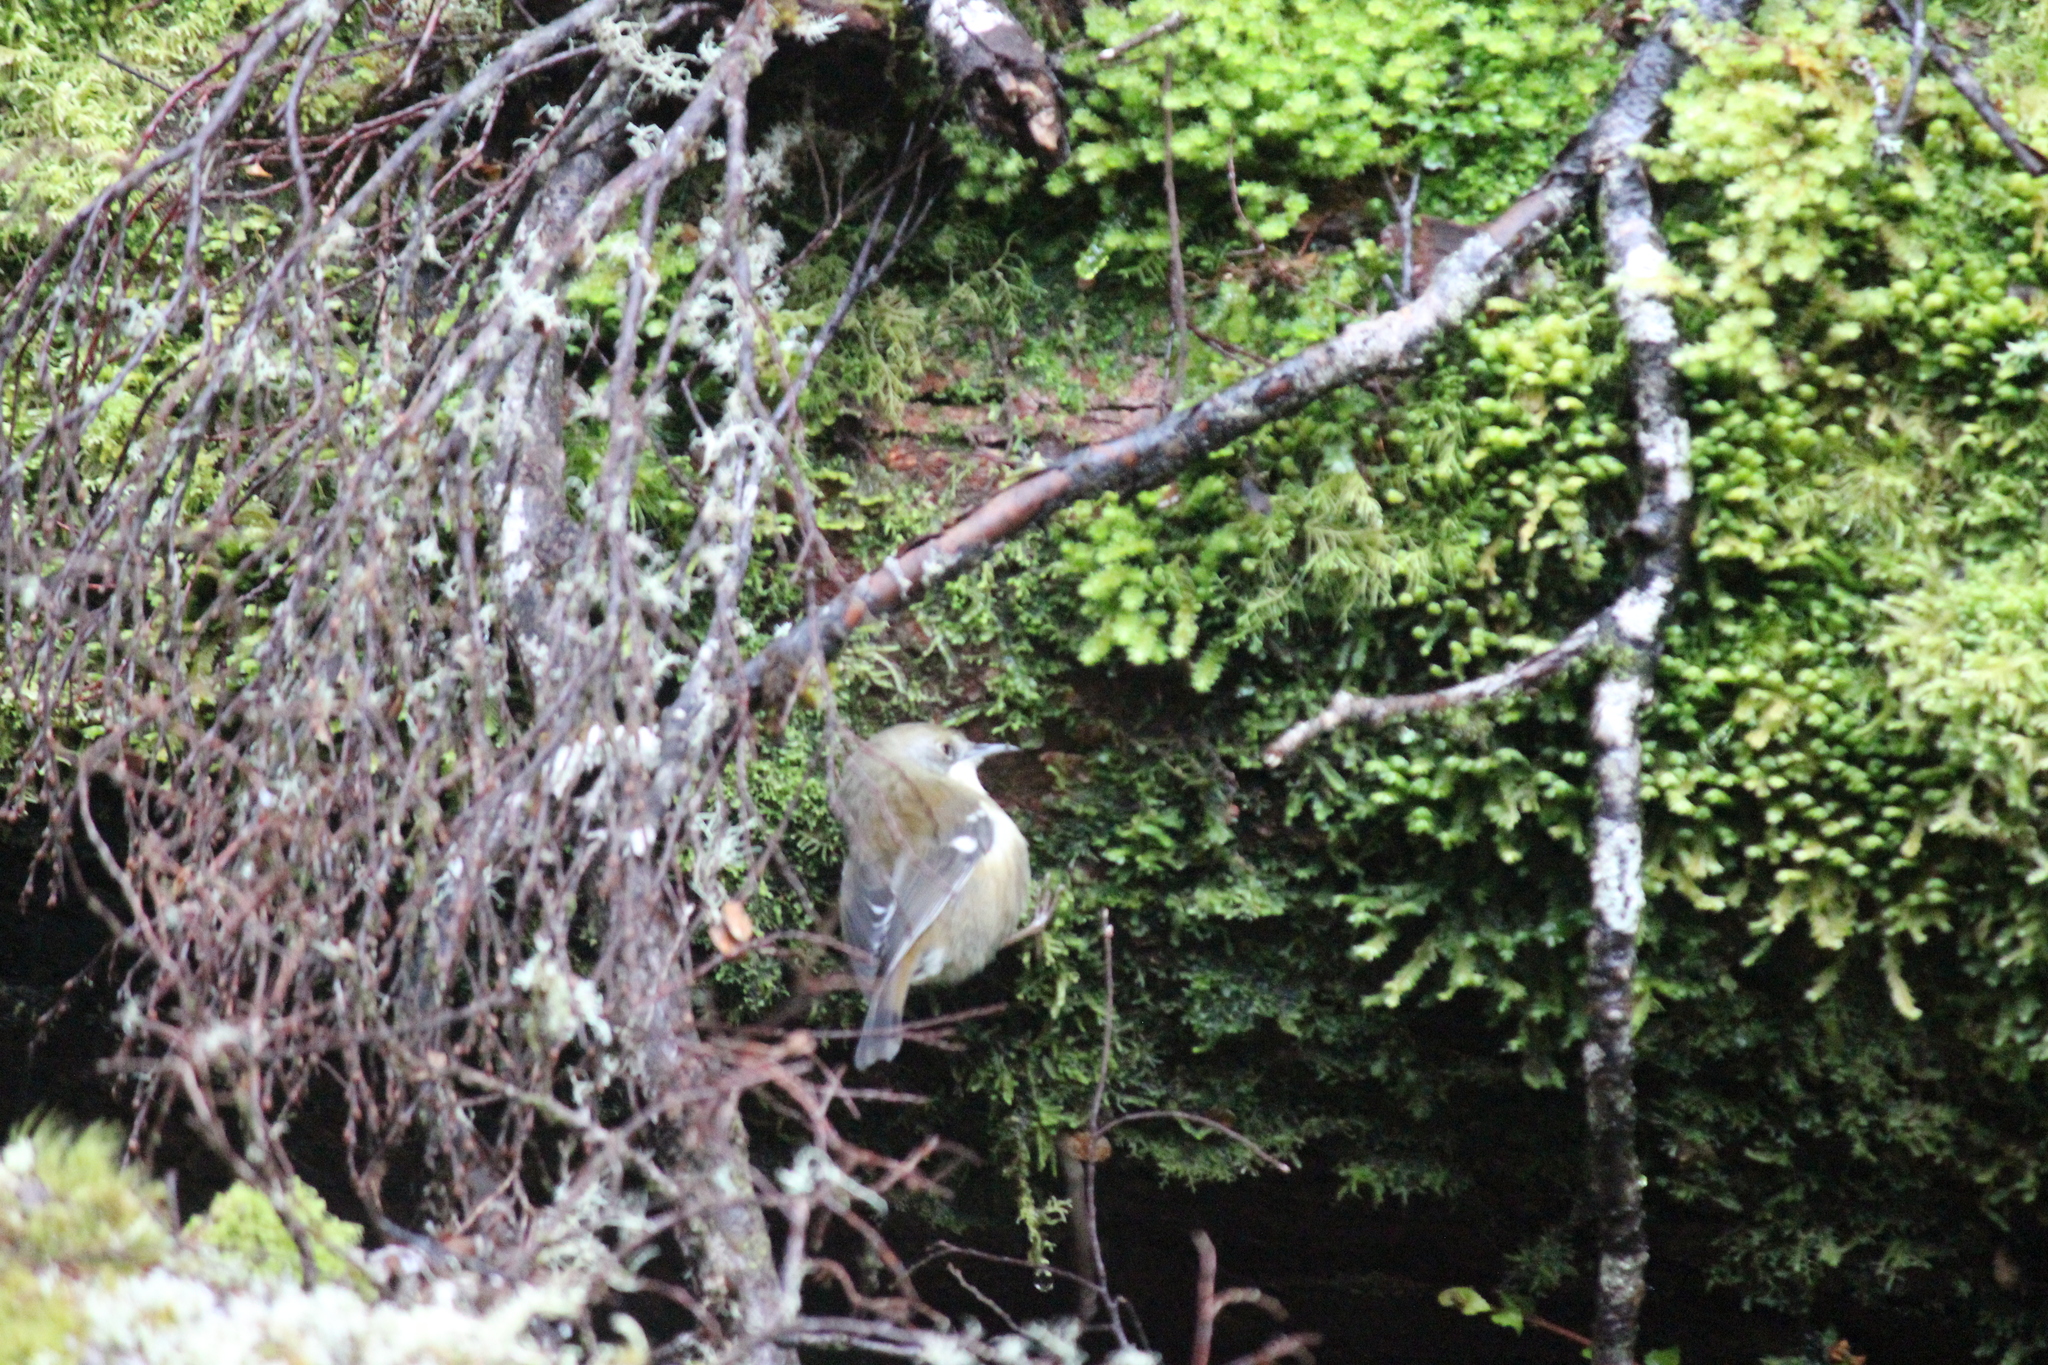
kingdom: Animalia
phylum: Chordata
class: Aves
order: Passeriformes
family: Acanthizidae
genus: Acanthornis
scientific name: Acanthornis magna
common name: Scrubtit
